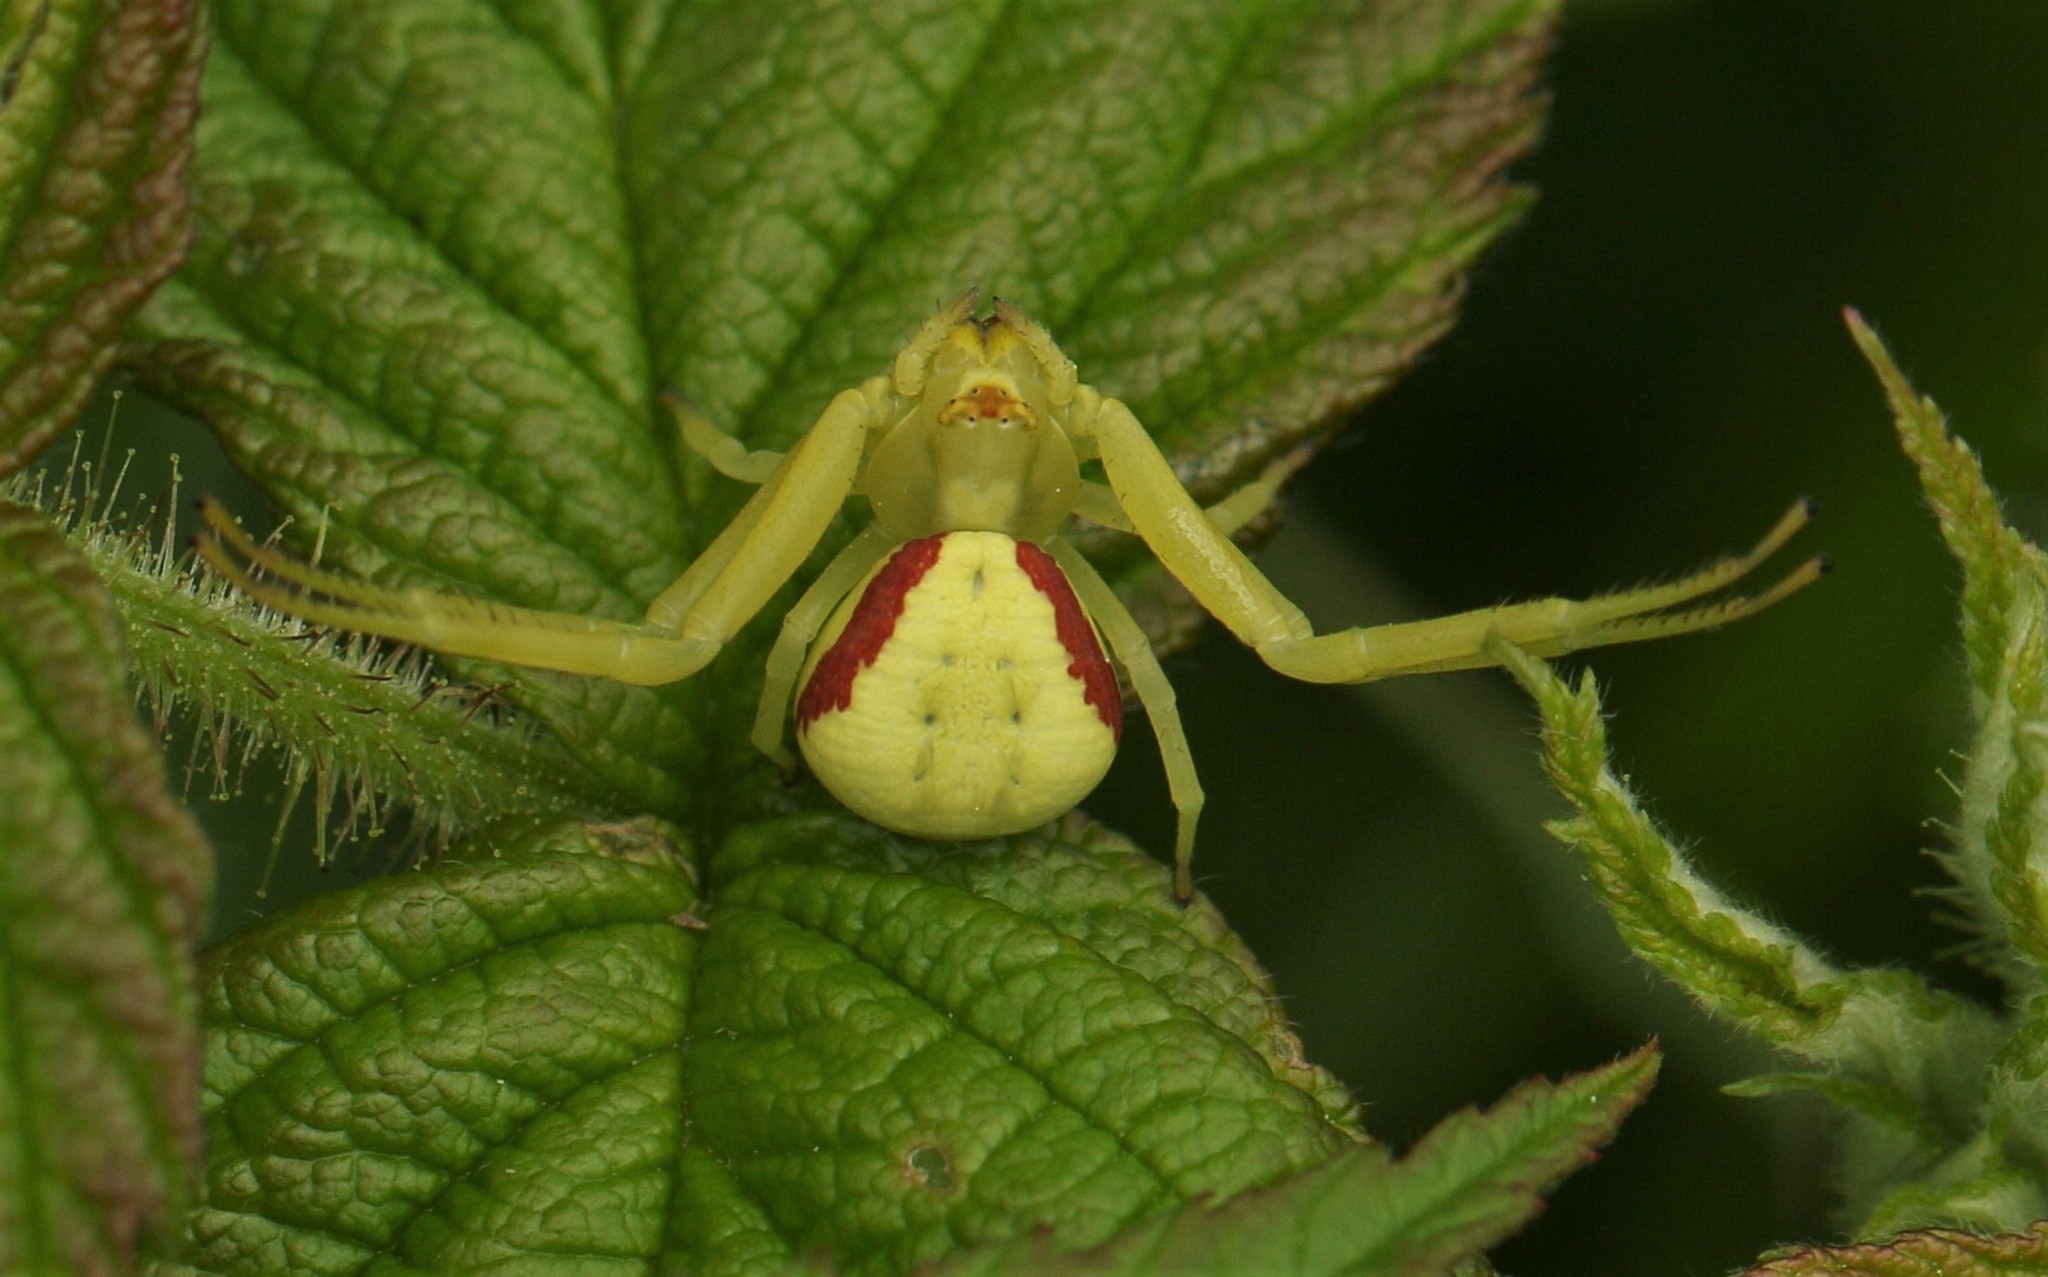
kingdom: Animalia
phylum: Arthropoda
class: Arachnida
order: Araneae
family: Thomisidae
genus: Misumena
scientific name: Misumena vatia
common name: Goldenrod crab spider
